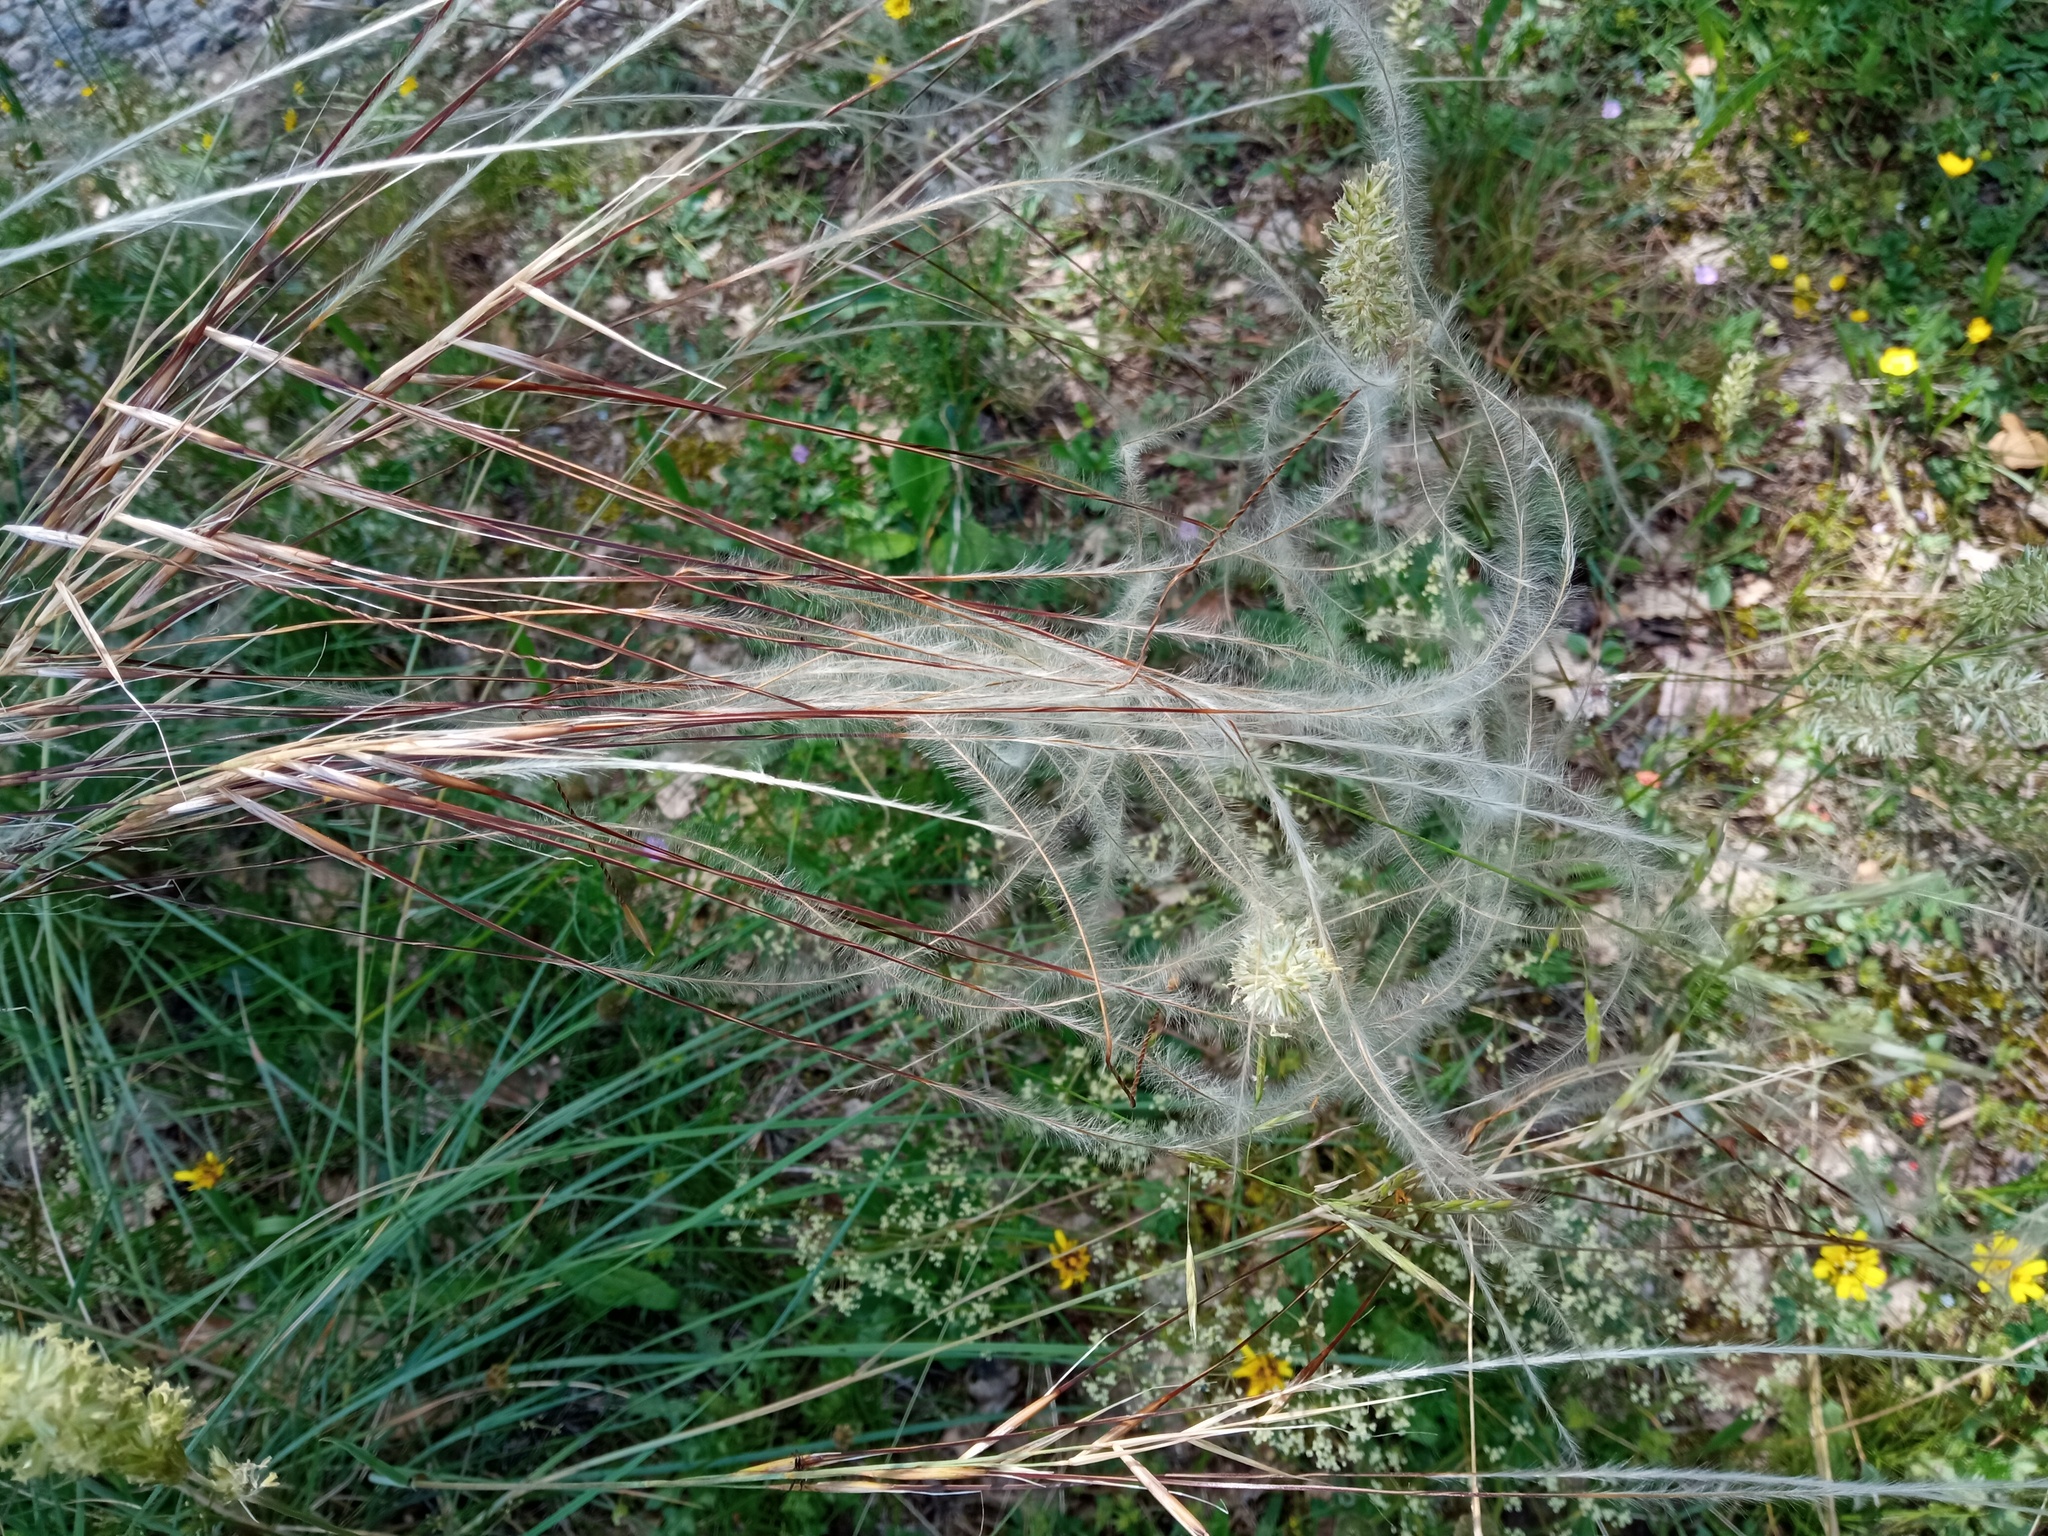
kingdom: Plantae
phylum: Tracheophyta
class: Liliopsida
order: Poales
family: Poaceae
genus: Stipa
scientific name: Stipa iberica
